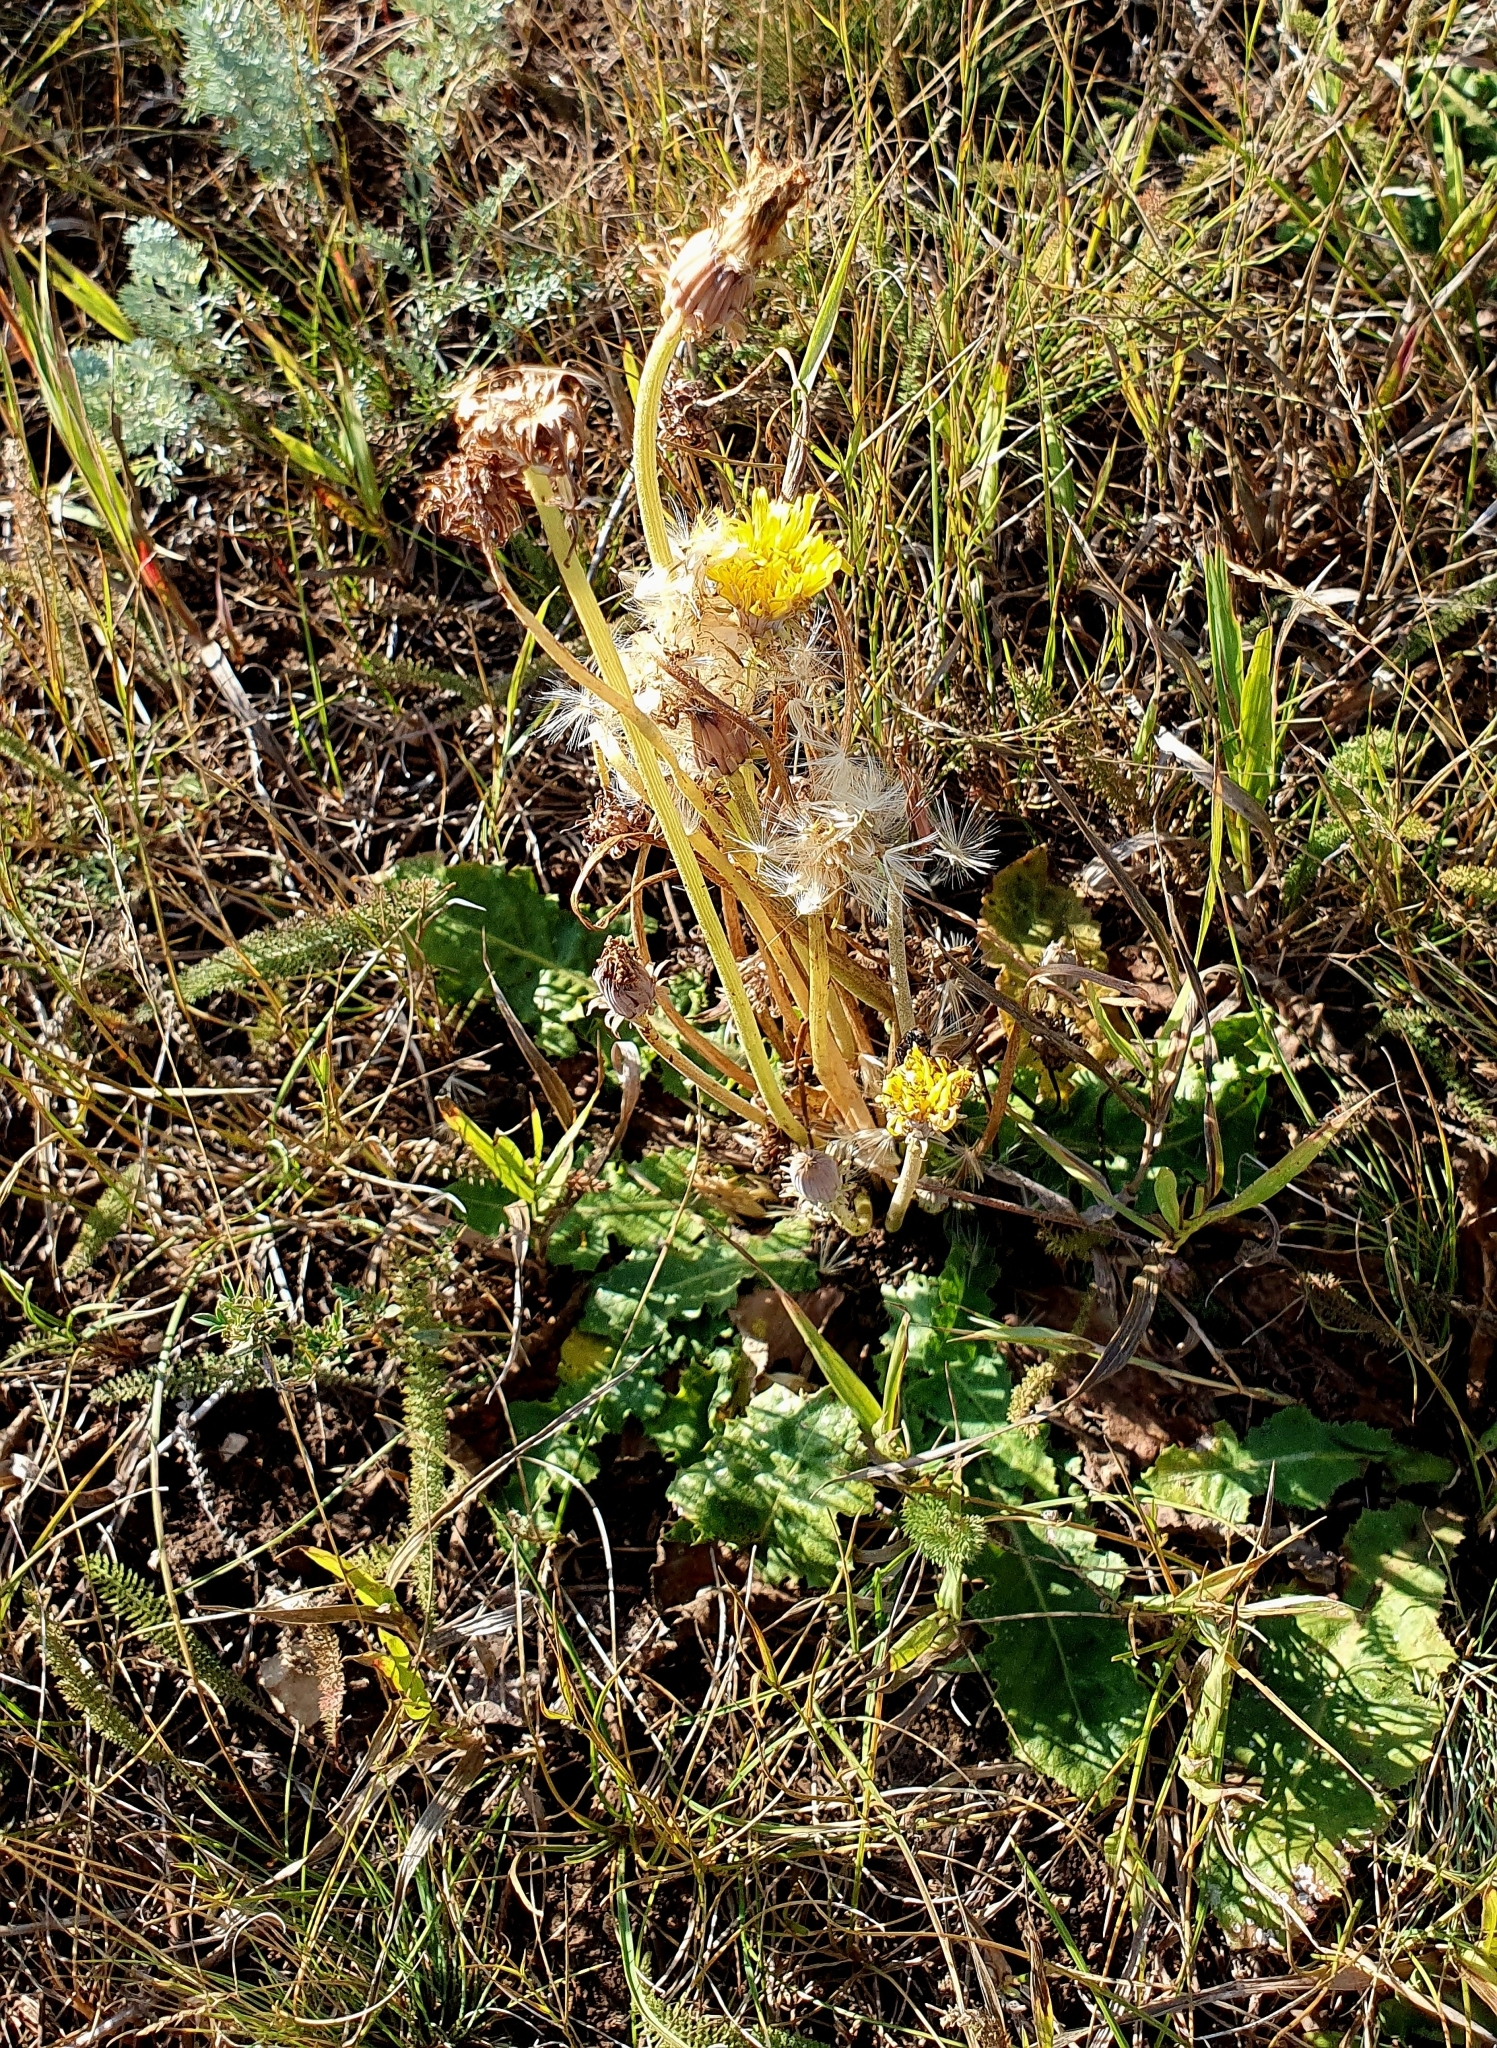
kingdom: Plantae
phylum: Tracheophyta
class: Magnoliopsida
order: Asterales
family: Asteraceae
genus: Taraxacum
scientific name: Taraxacum serotinum
